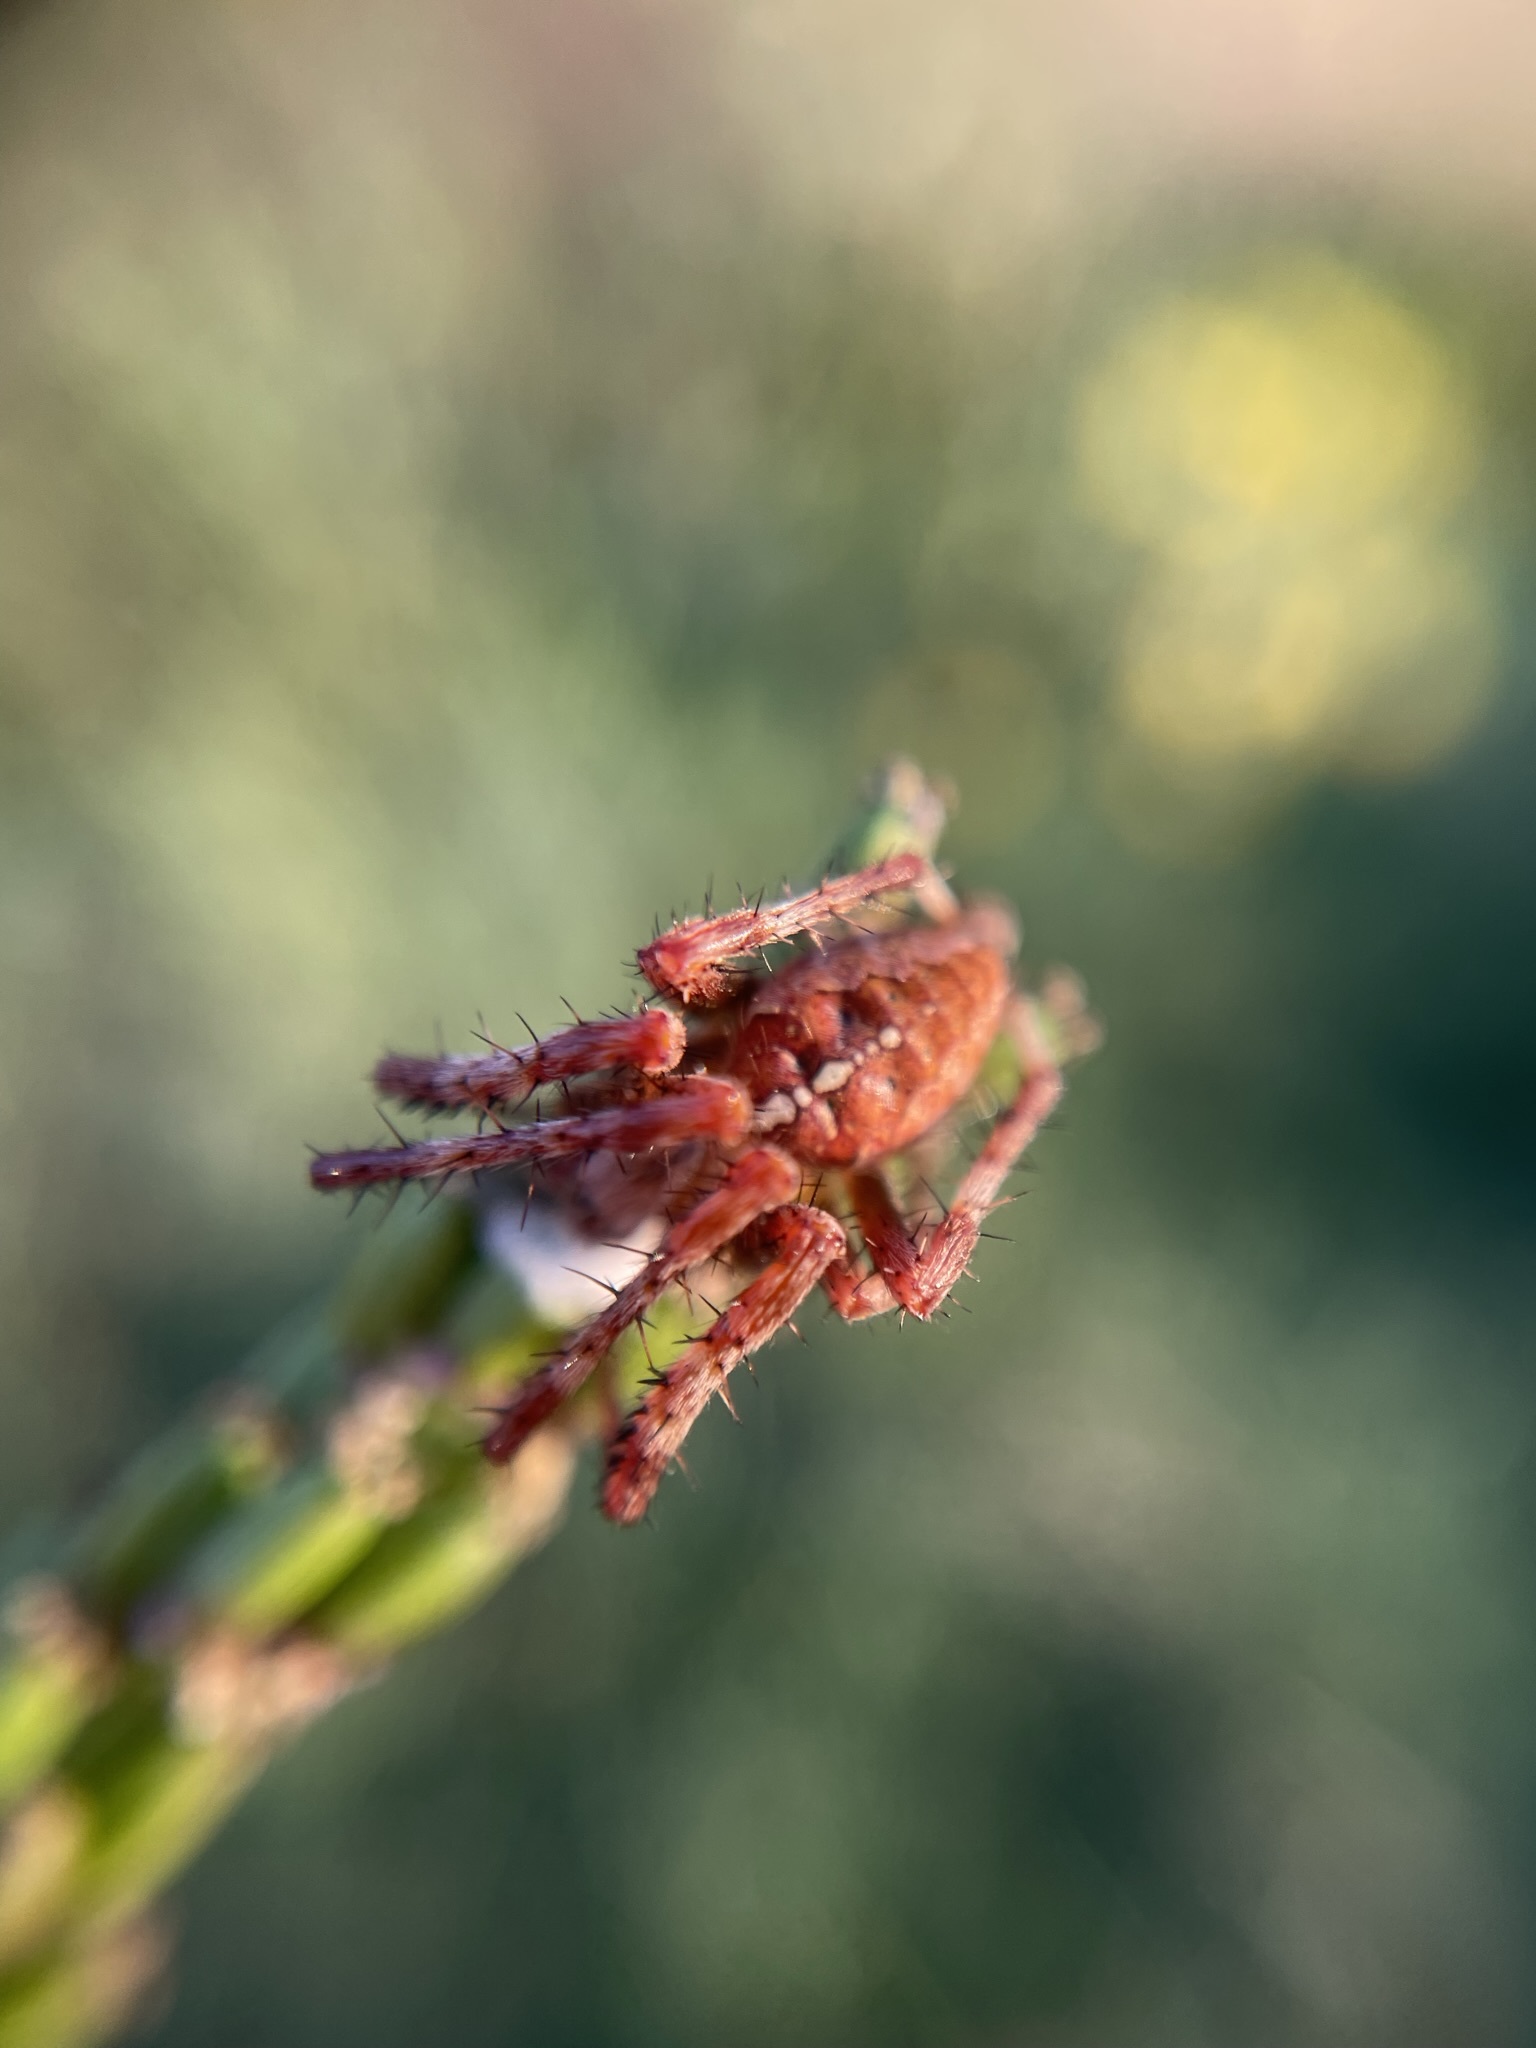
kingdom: Animalia
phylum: Arthropoda
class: Arachnida
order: Araneae
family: Araneidae
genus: Araneus
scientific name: Araneus diadematus
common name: Cross orbweaver
